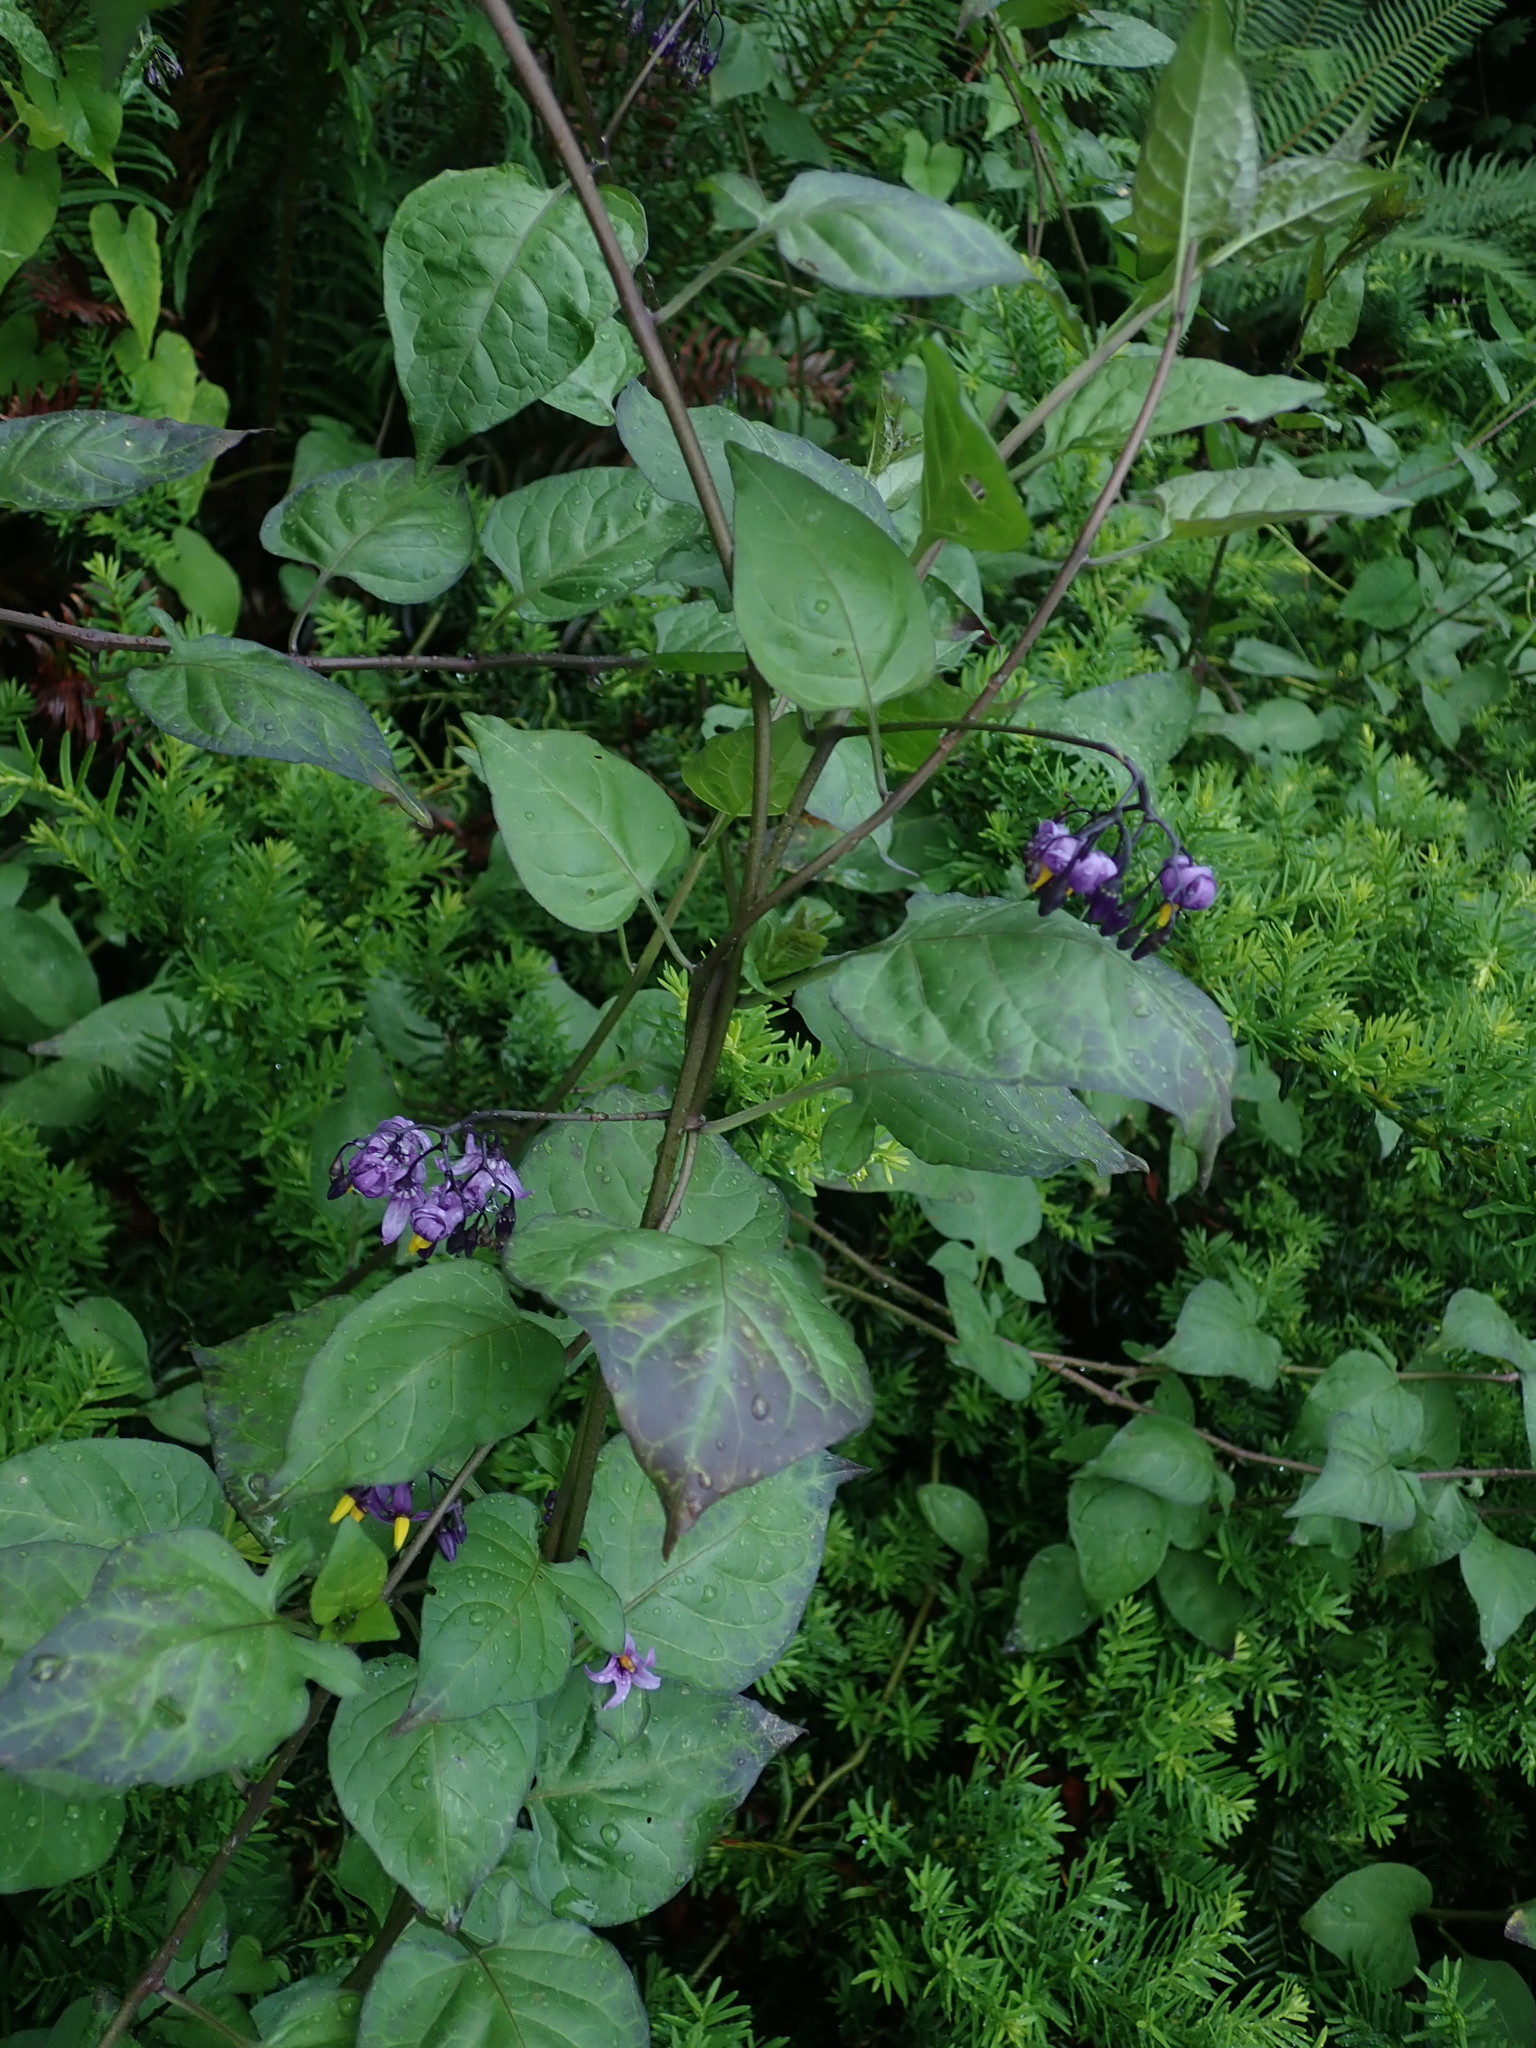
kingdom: Plantae
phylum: Tracheophyta
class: Magnoliopsida
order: Solanales
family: Solanaceae
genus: Solanum
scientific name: Solanum dulcamara
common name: Climbing nightshade
